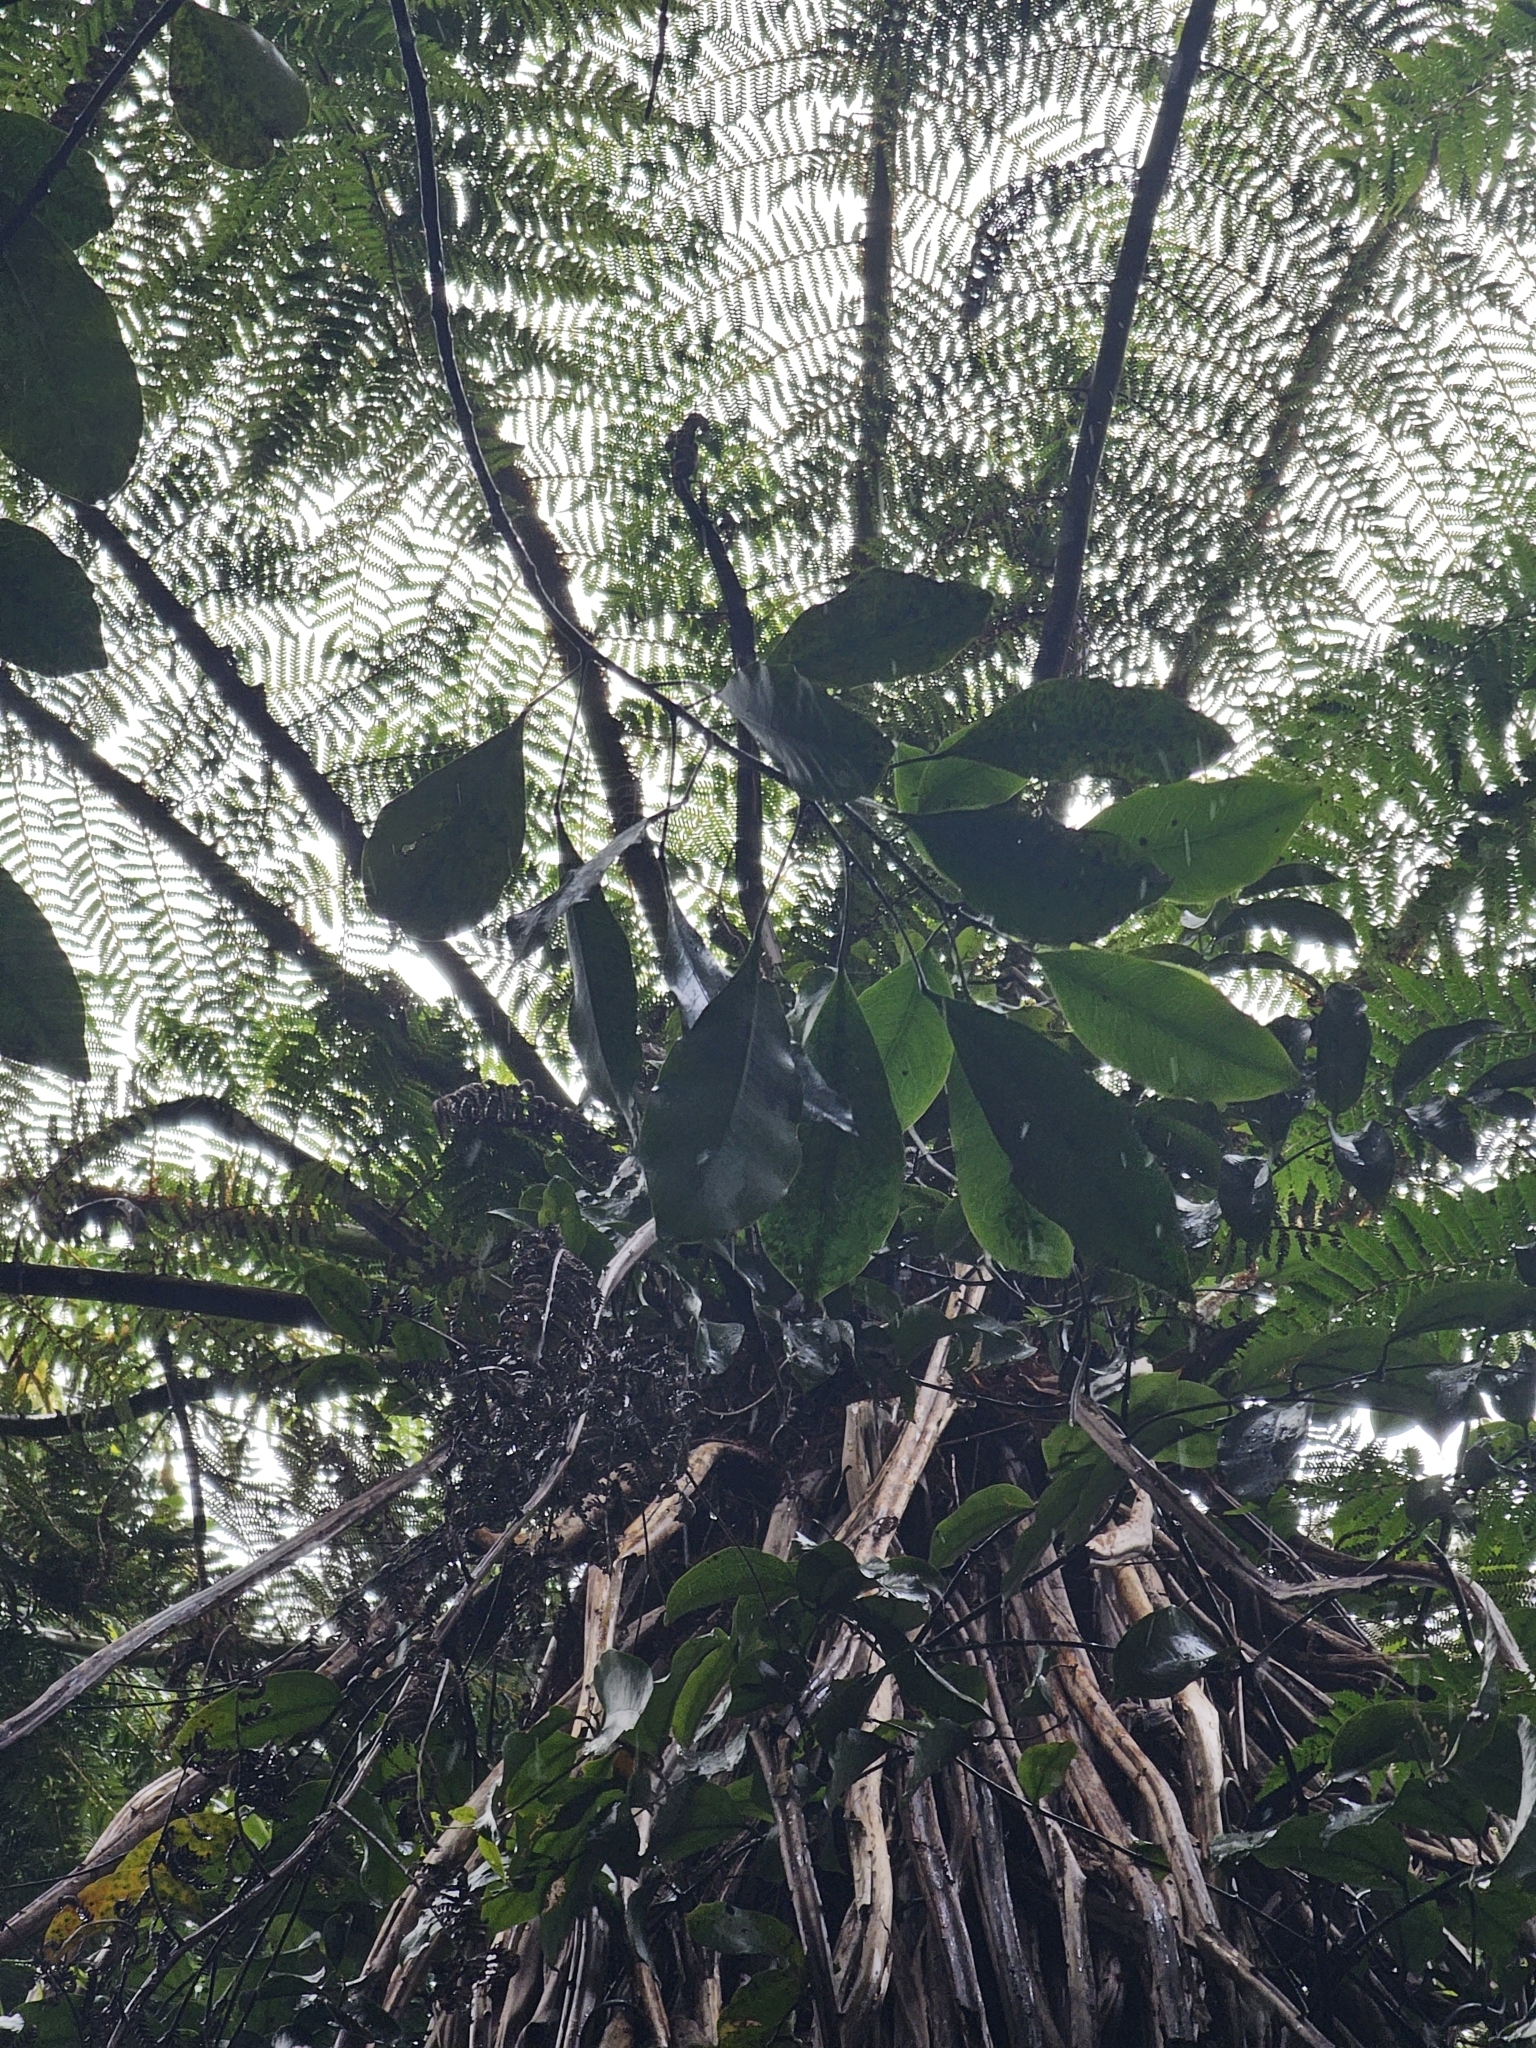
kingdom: Plantae
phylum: Tracheophyta
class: Magnoliopsida
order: Apiales
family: Araliaceae
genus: Raukaua
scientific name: Raukaua edgerleyi
